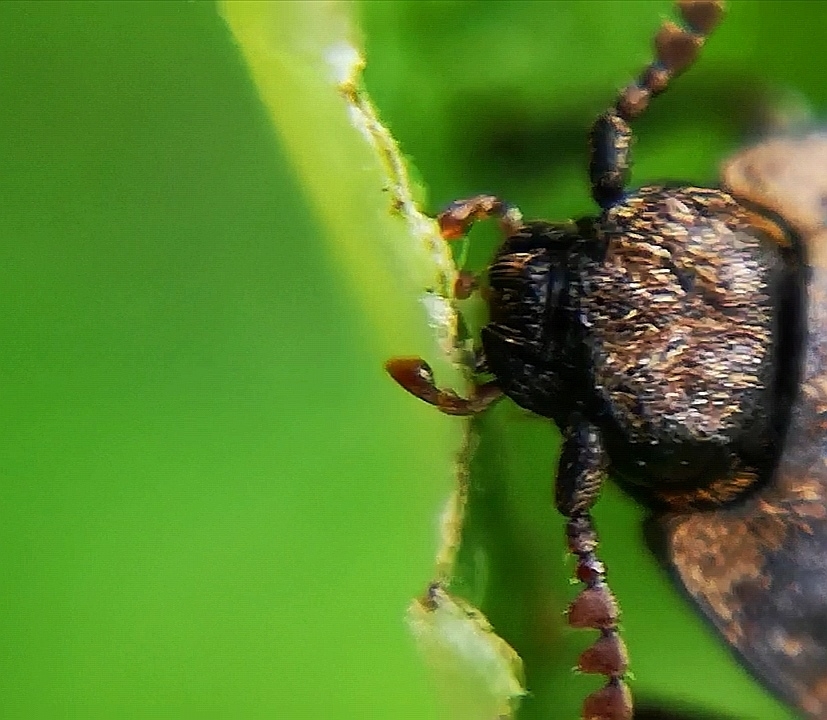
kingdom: Animalia
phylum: Arthropoda
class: Insecta
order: Coleoptera
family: Elateridae
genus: Agrypnus
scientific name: Agrypnus murinus
